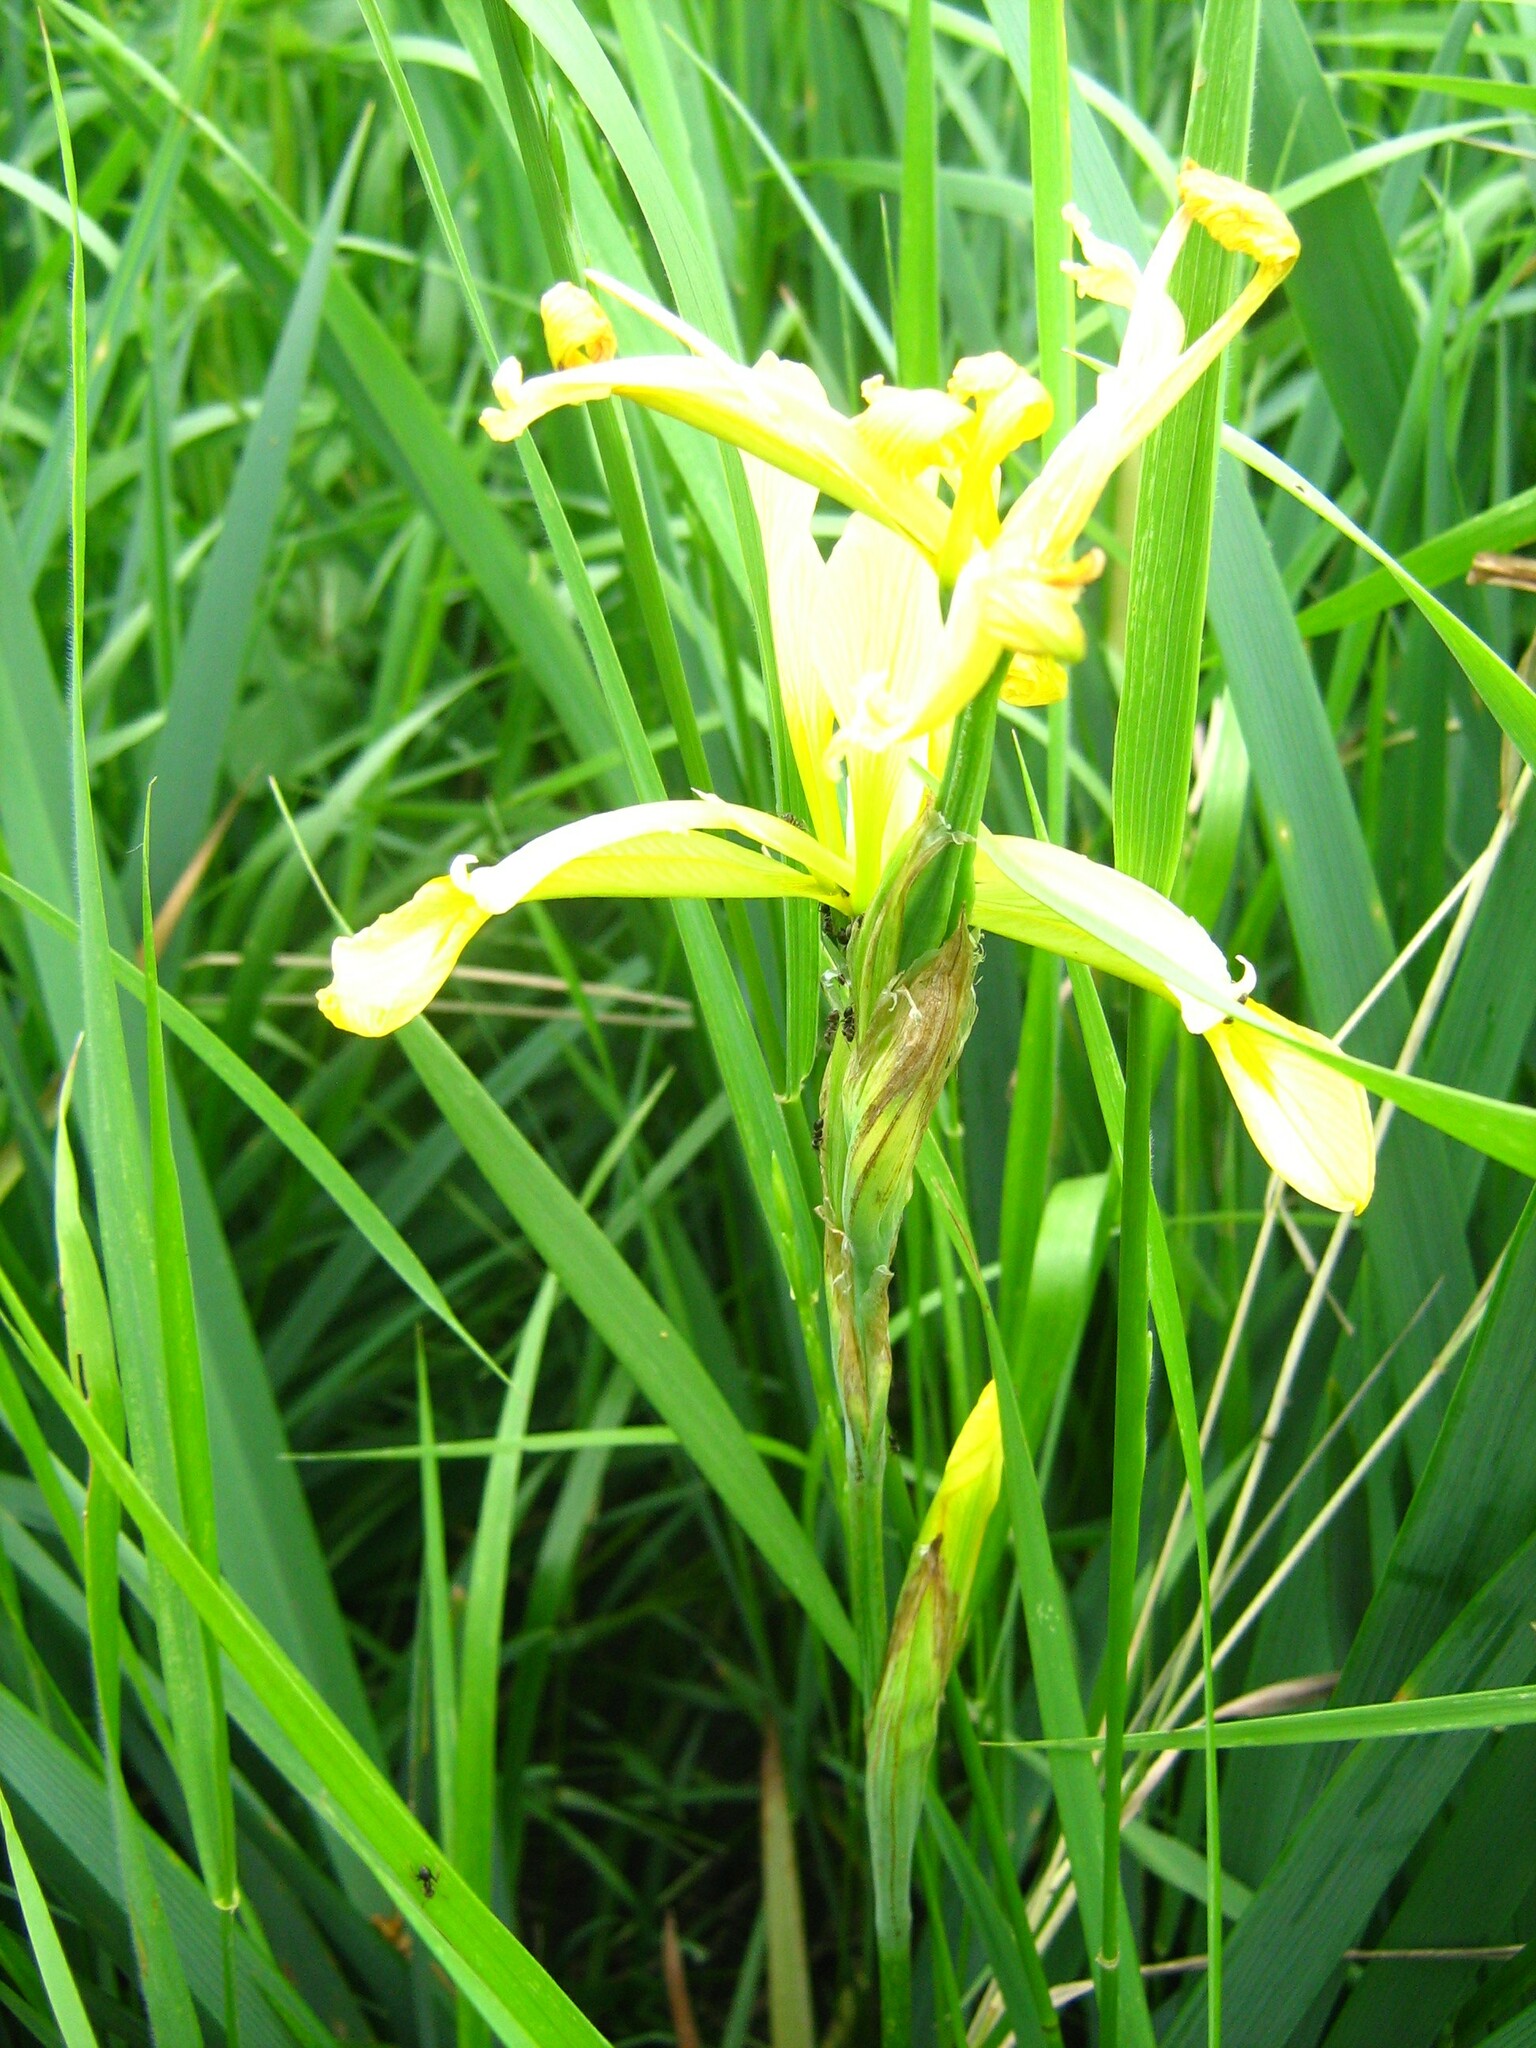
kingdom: Plantae
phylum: Tracheophyta
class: Liliopsida
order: Asparagales
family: Iridaceae
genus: Iris
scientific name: Iris halophila
